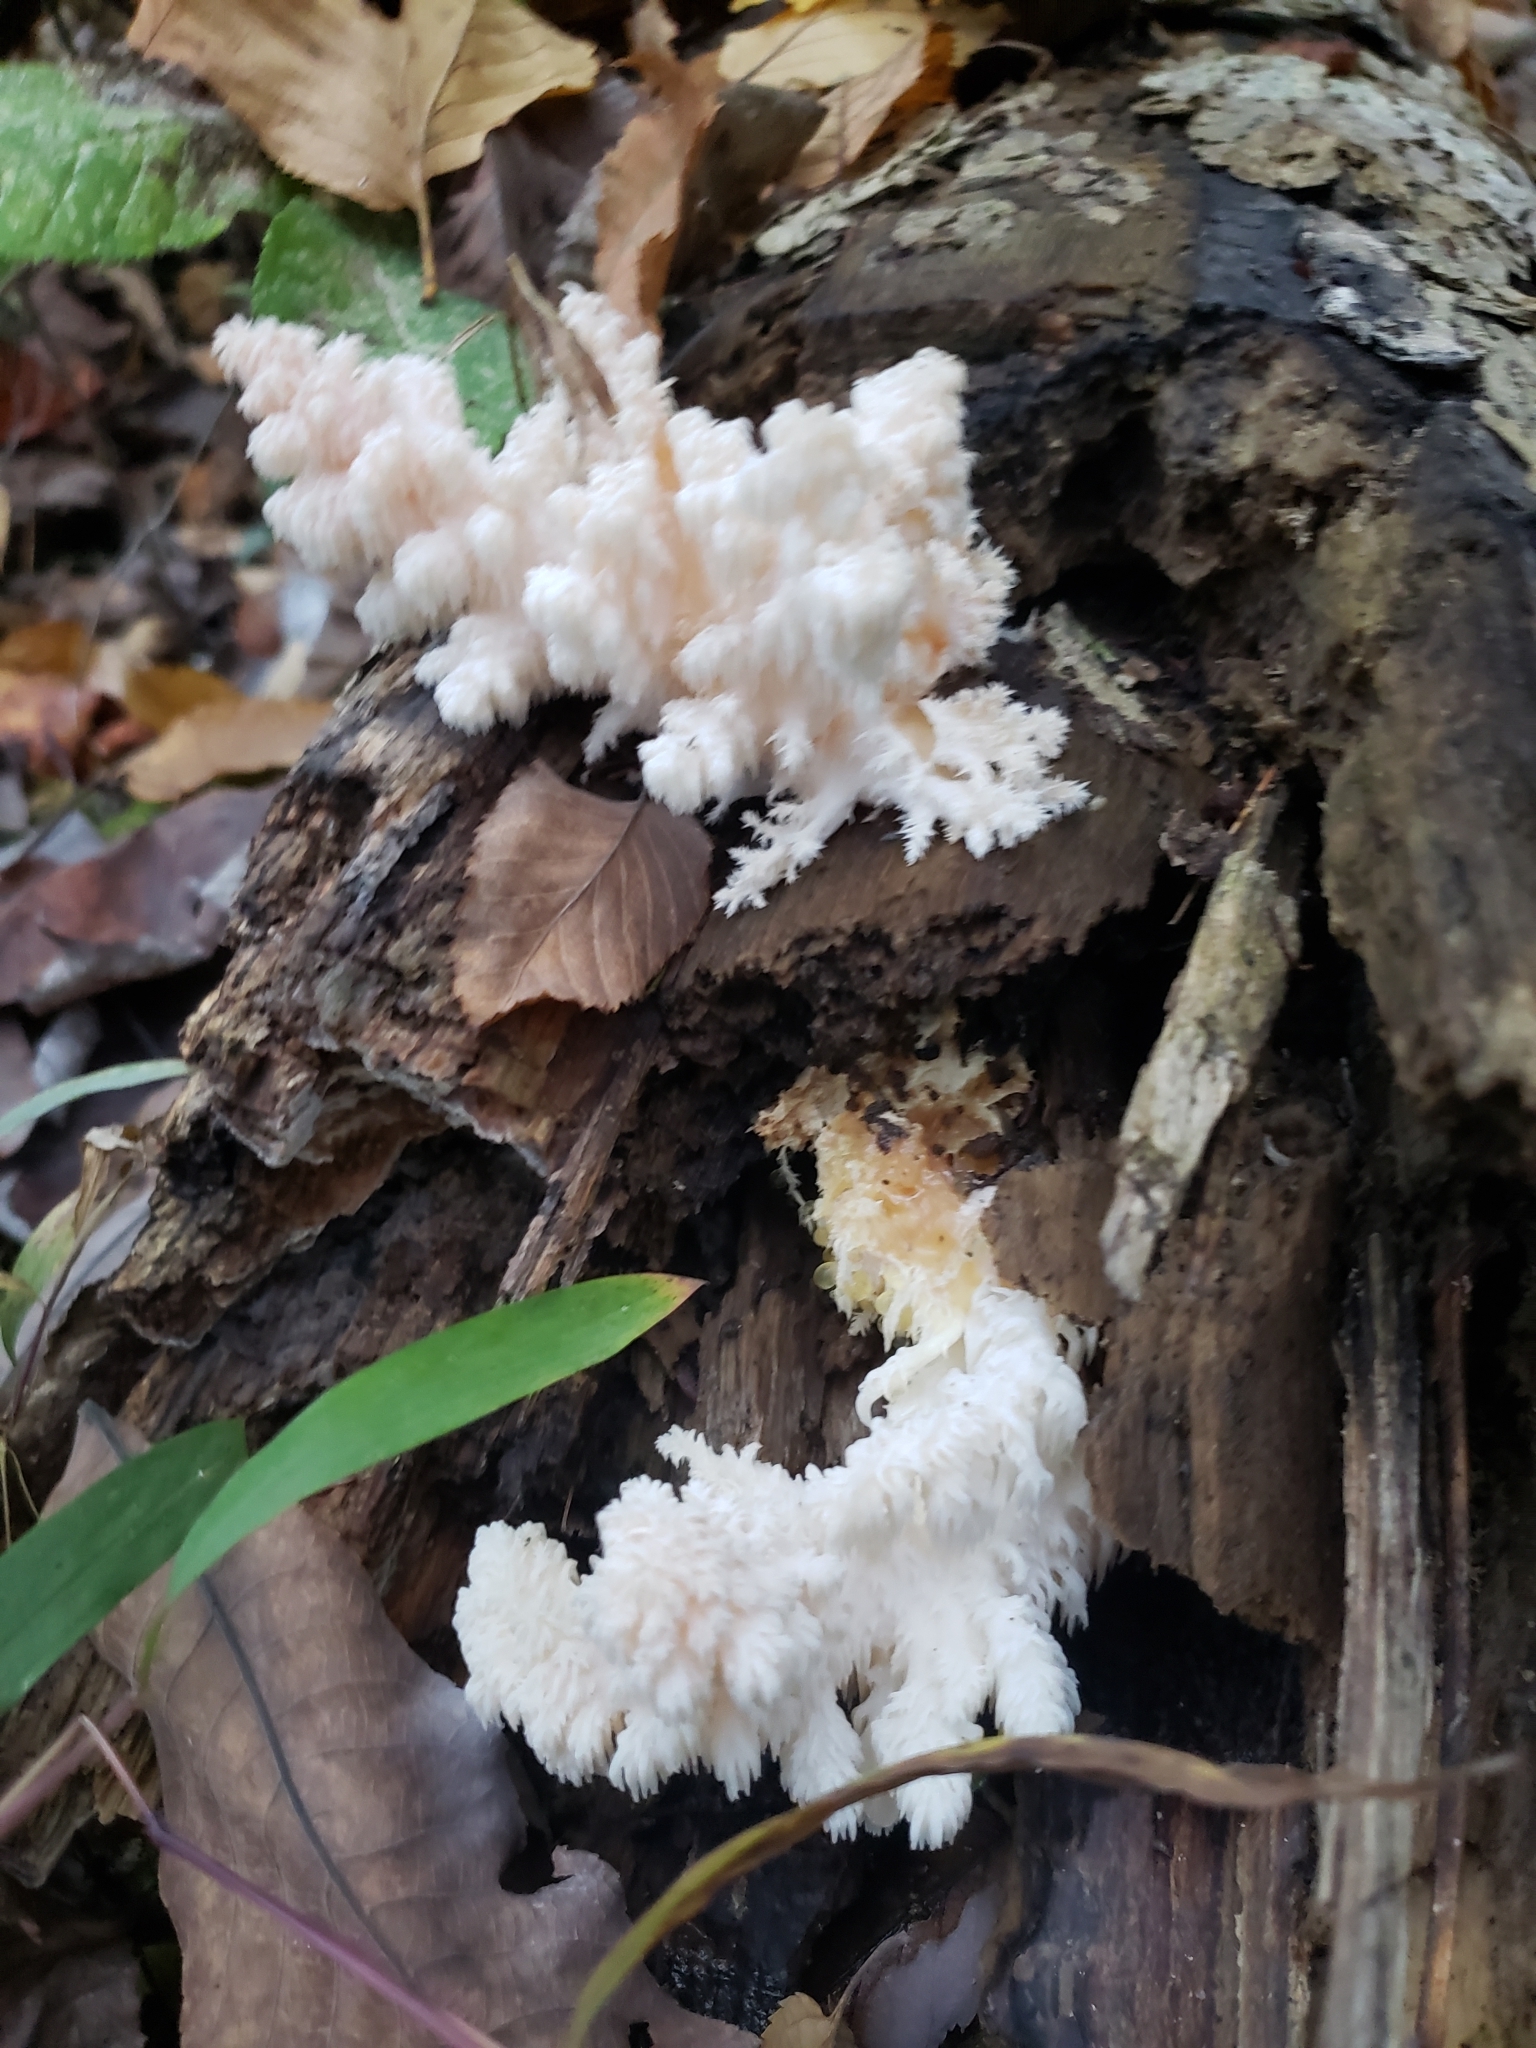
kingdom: Fungi
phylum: Basidiomycota
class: Agaricomycetes
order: Russulales
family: Hericiaceae
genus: Hericium
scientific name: Hericium americanum
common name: Bear's head tooth
